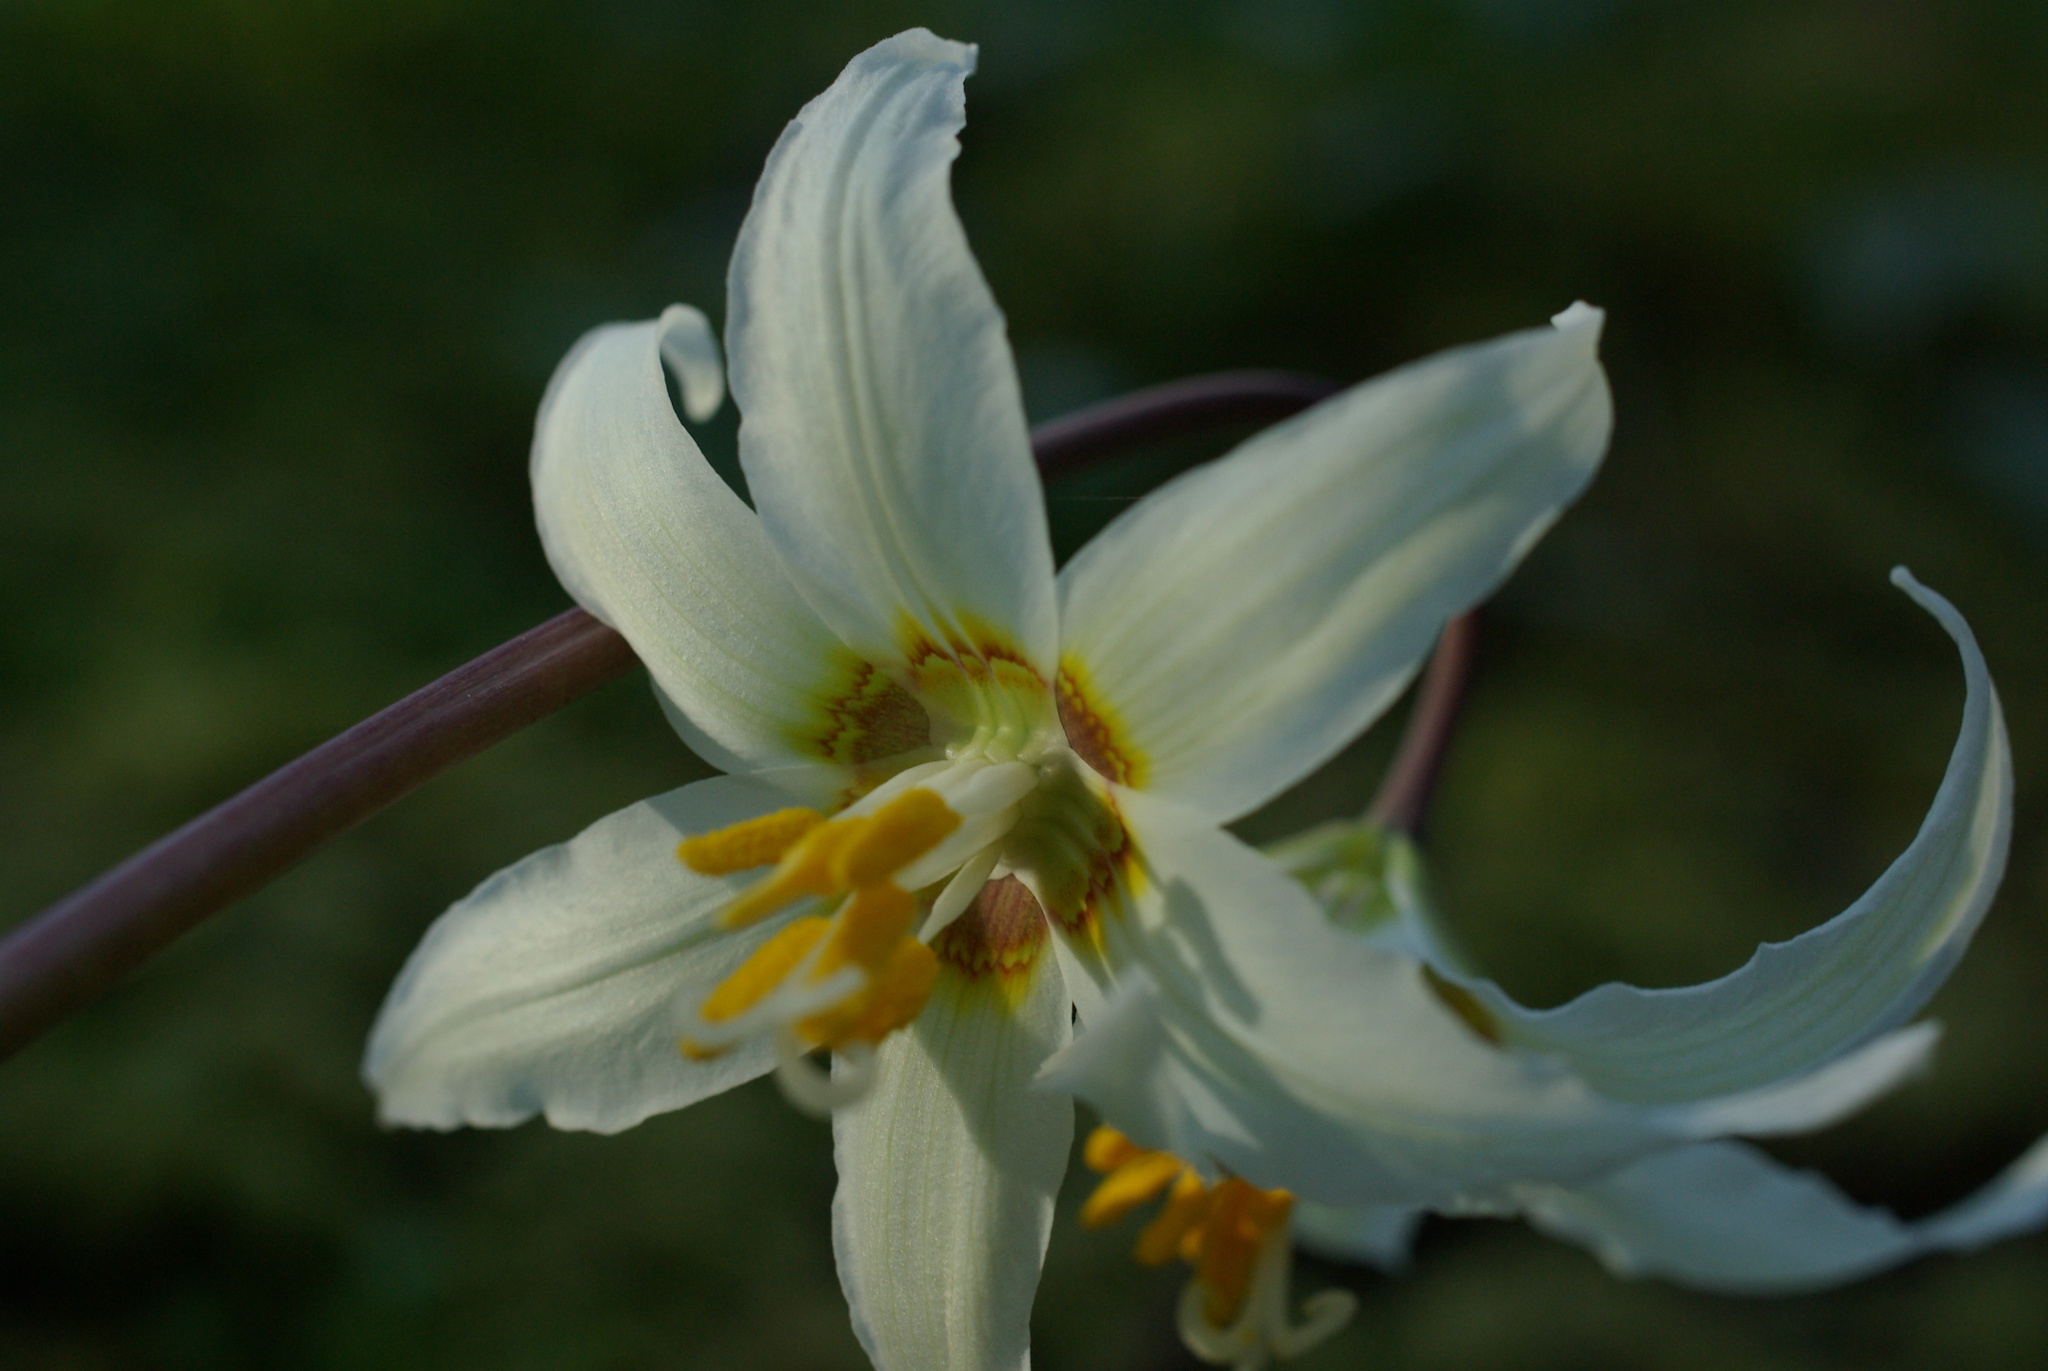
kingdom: Plantae
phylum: Tracheophyta
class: Liliopsida
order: Liliales
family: Liliaceae
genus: Erythronium
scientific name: Erythronium oregonum
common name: Giant adder's-tongue
